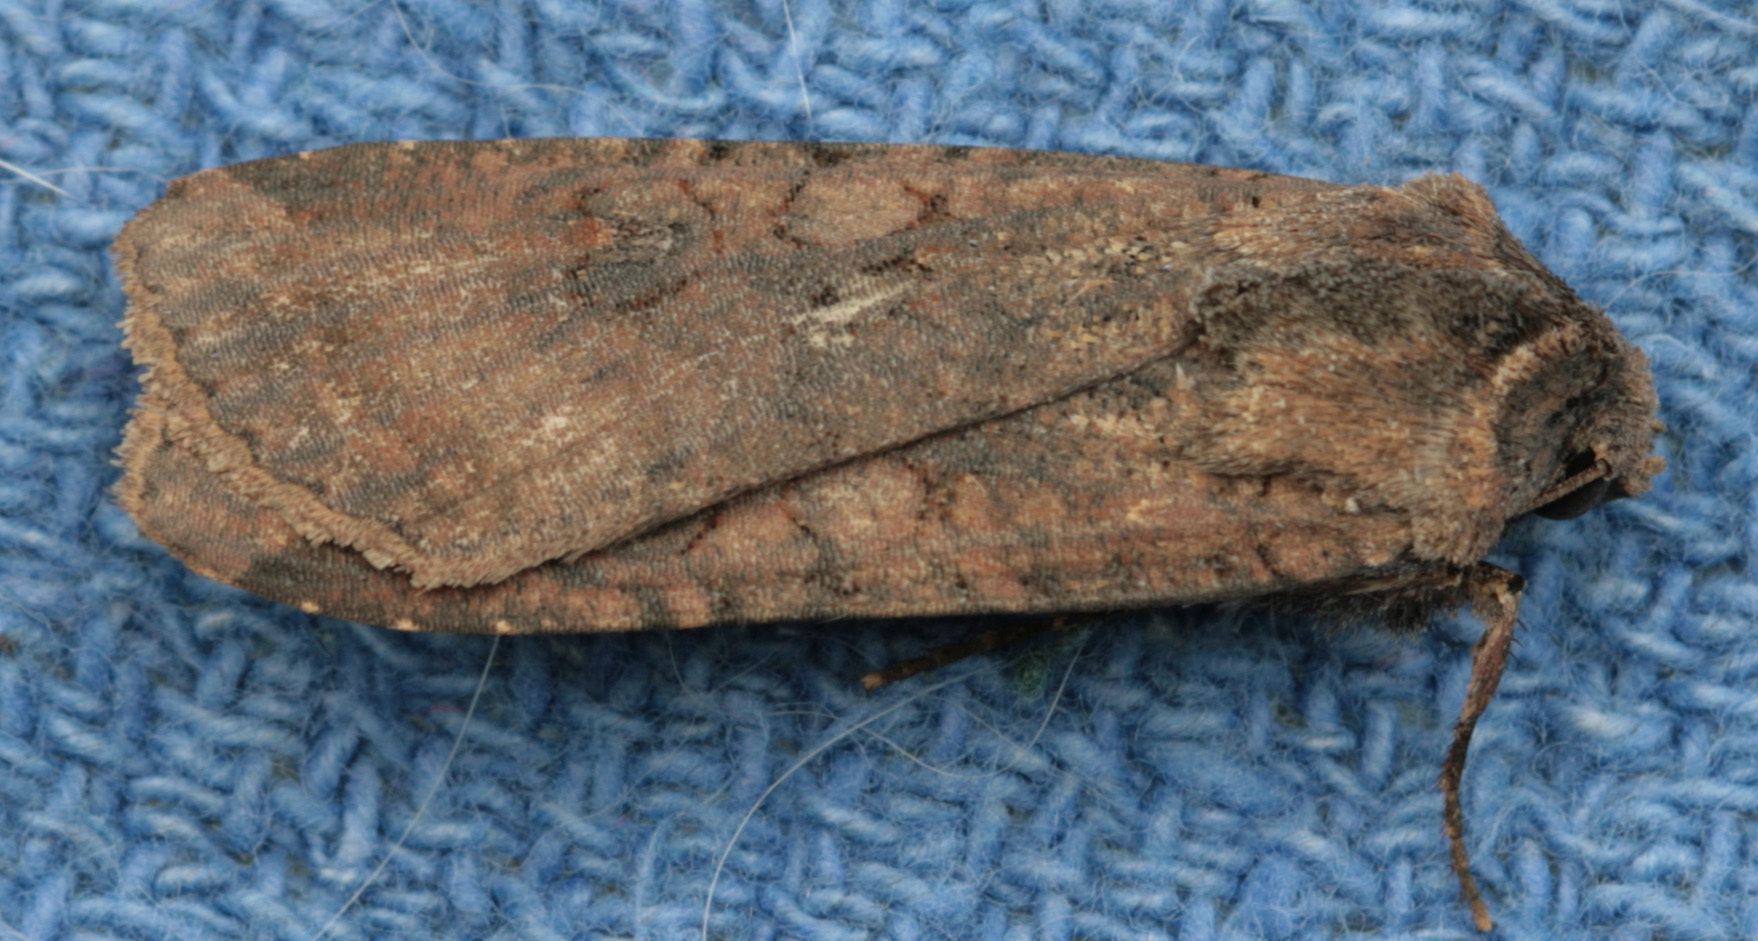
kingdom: Animalia
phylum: Arthropoda
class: Insecta
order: Lepidoptera
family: Noctuidae
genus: Peridroma
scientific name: Peridroma saucia
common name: Pearly underwing
